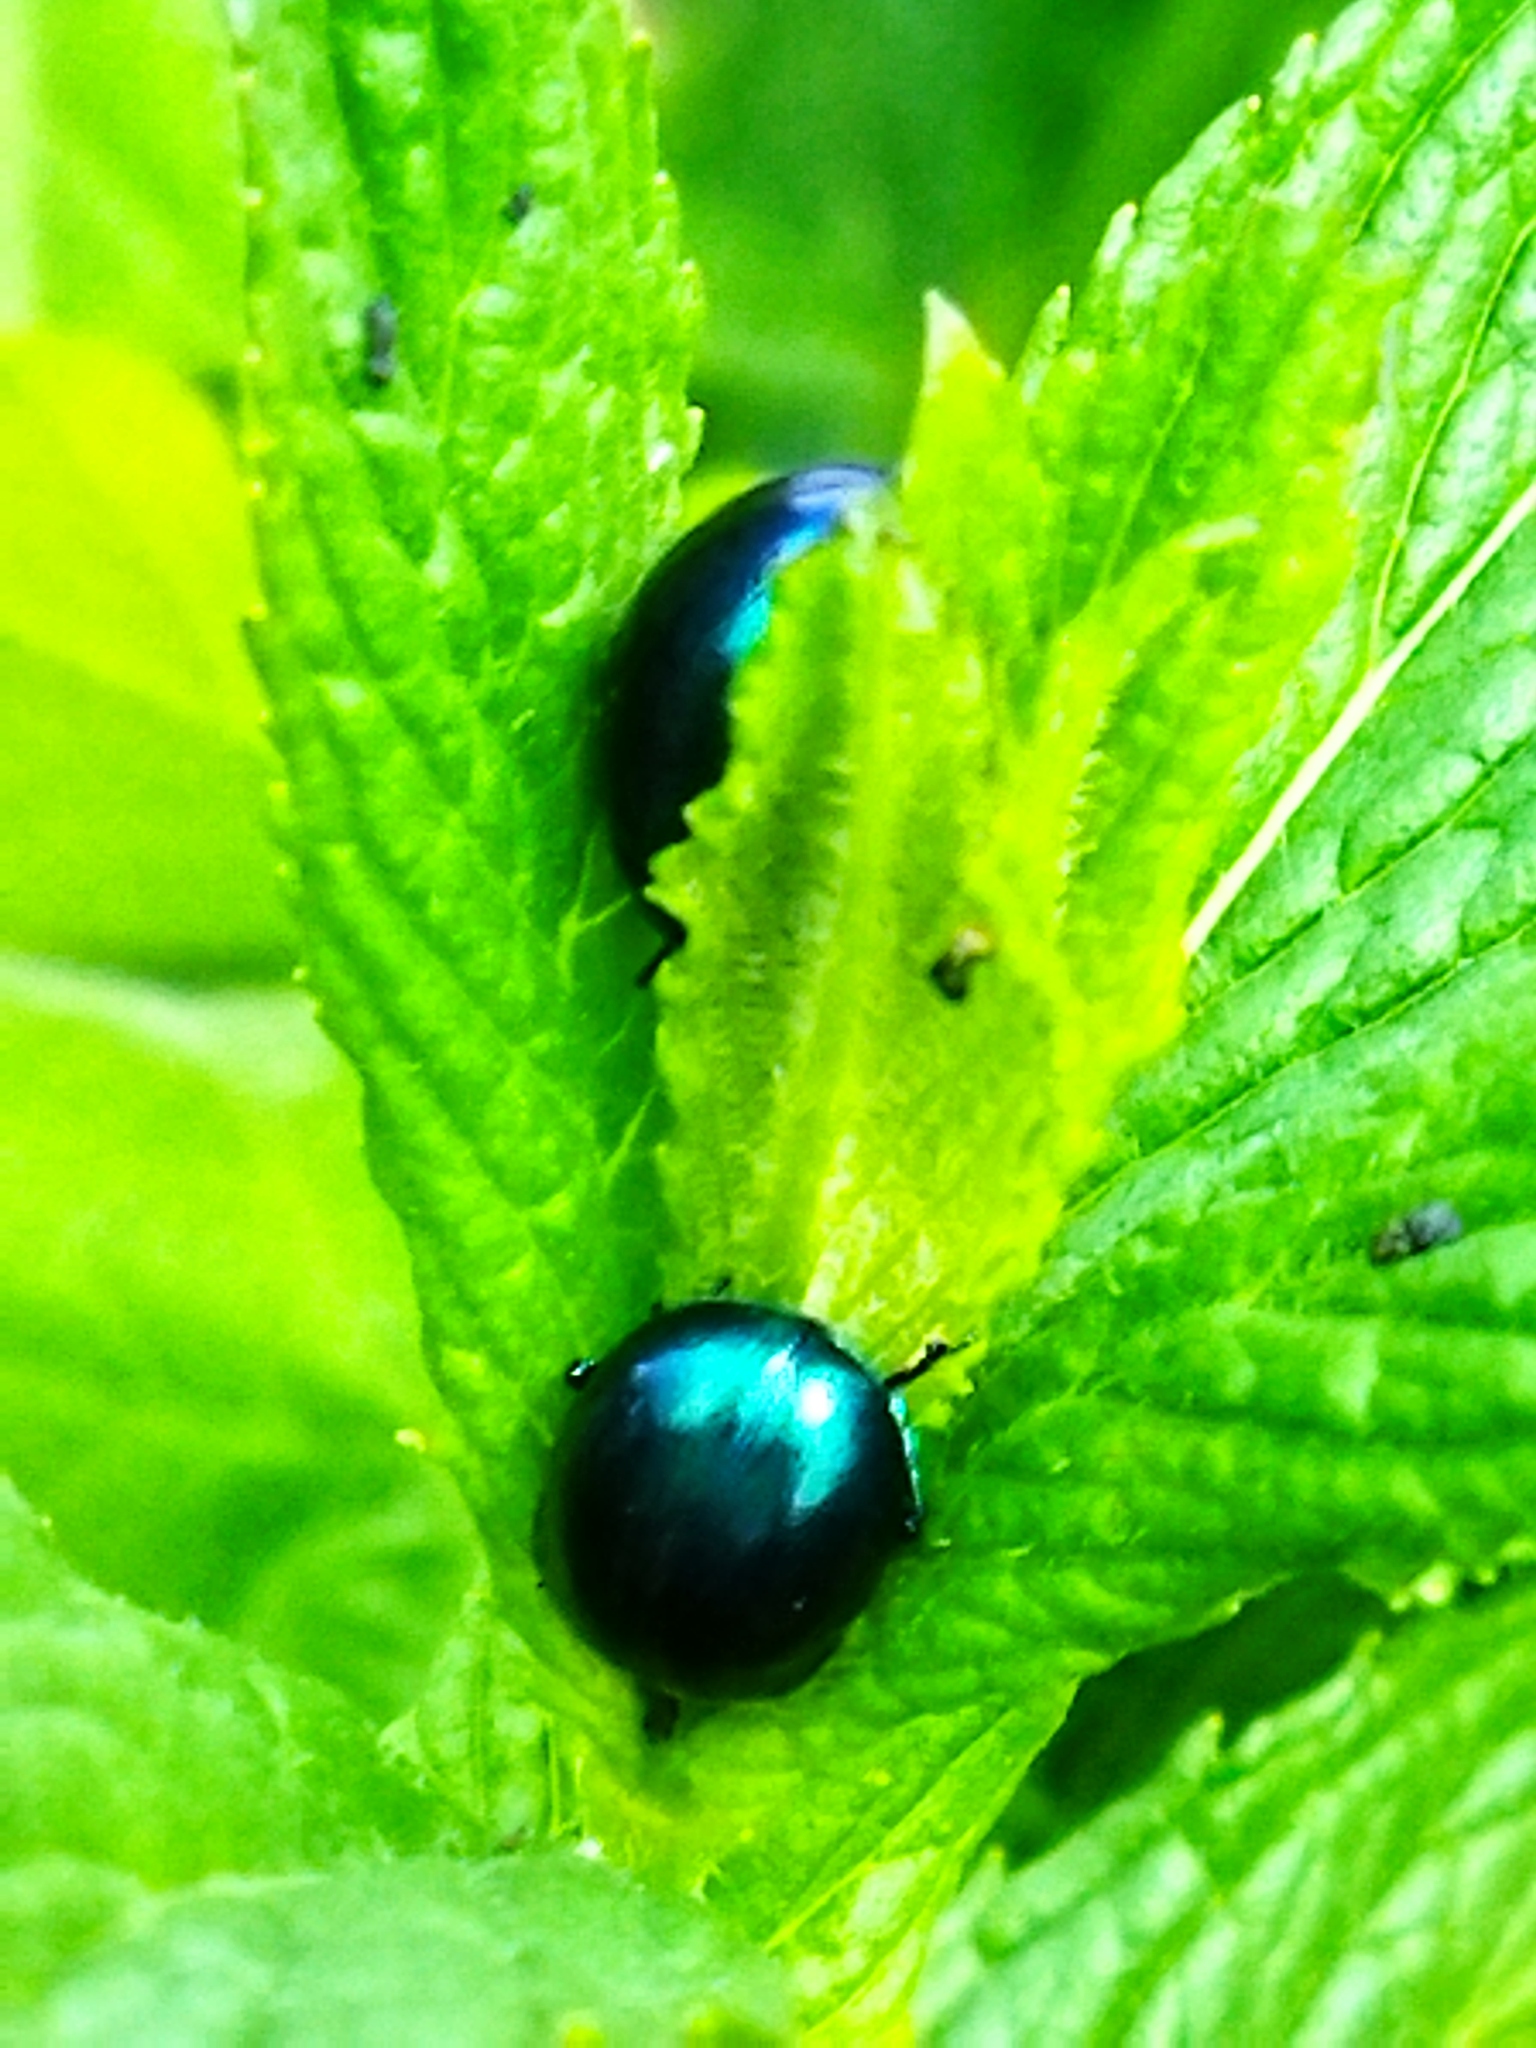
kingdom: Animalia
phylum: Arthropoda
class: Insecta
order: Coleoptera
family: Chrysomelidae
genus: Chrysolina
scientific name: Chrysolina coerulans
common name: Blue mint beetle
